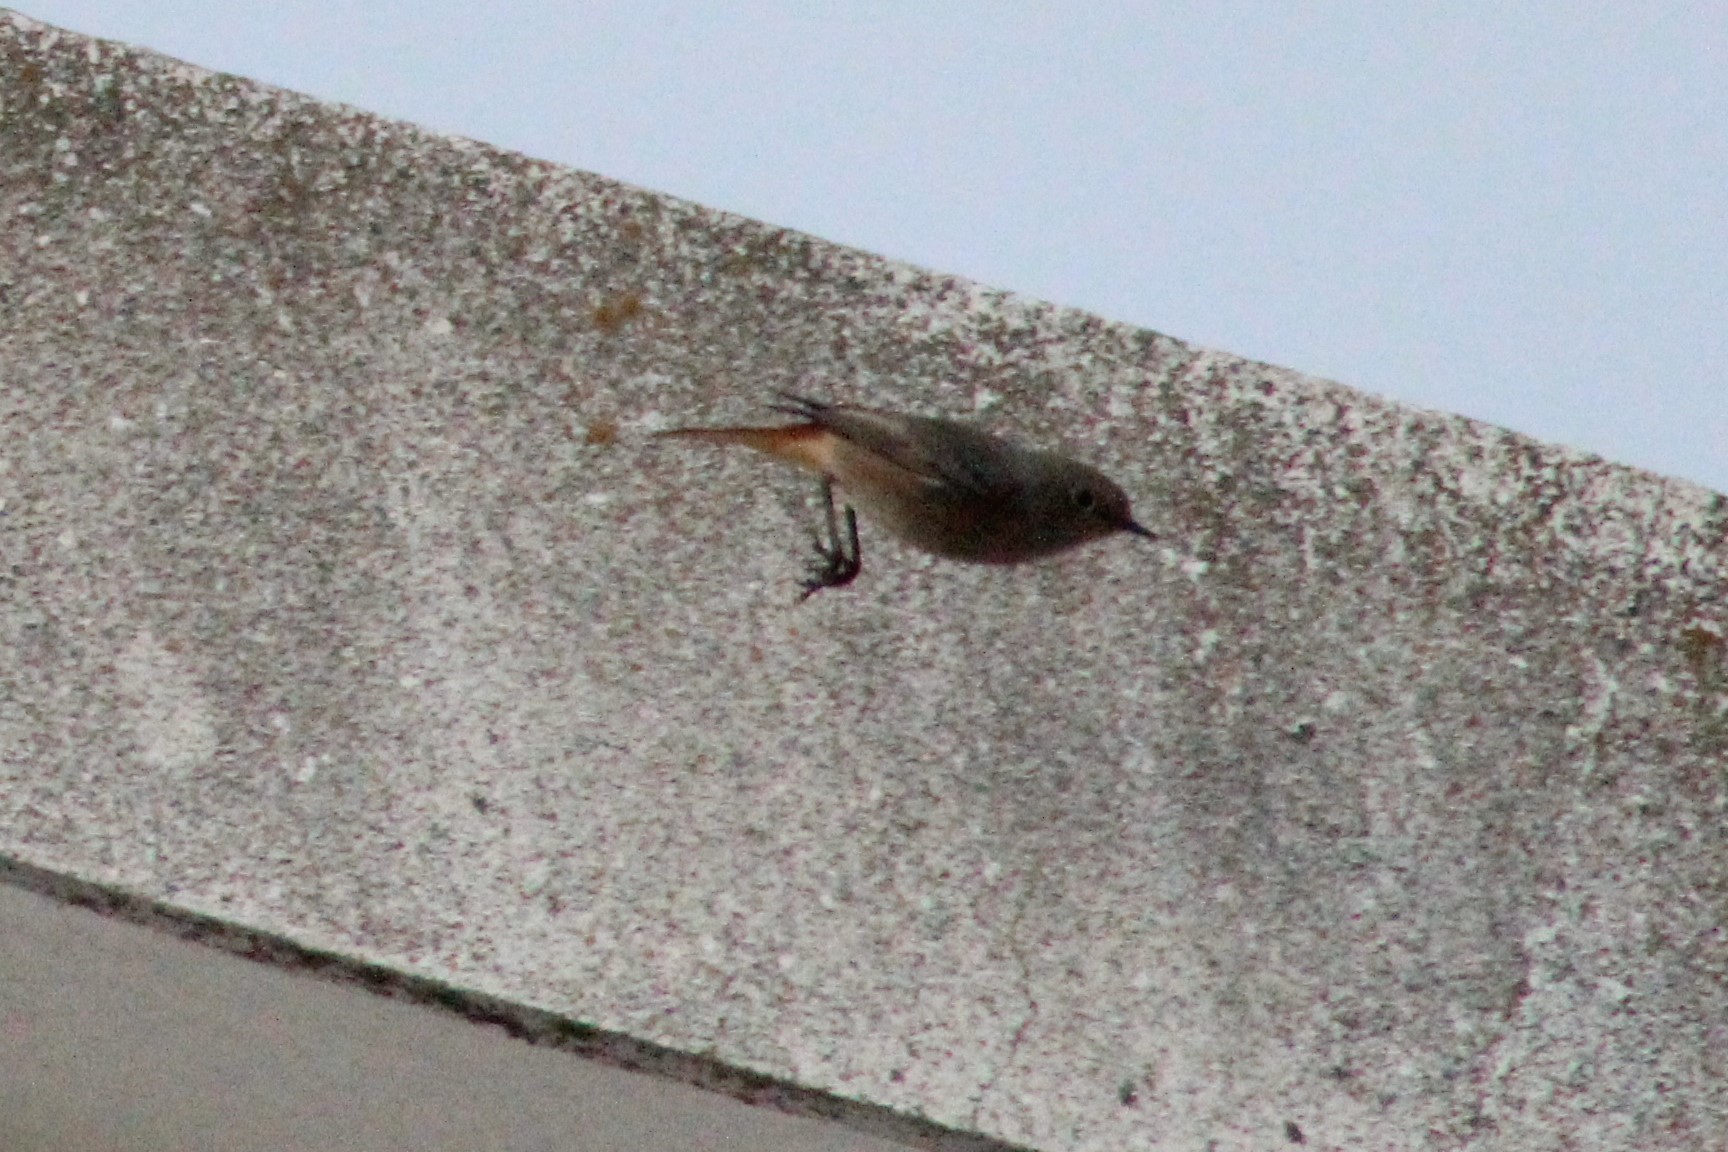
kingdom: Animalia
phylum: Chordata
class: Aves
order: Passeriformes
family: Muscicapidae
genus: Phoenicurus
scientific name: Phoenicurus ochruros
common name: Black redstart
